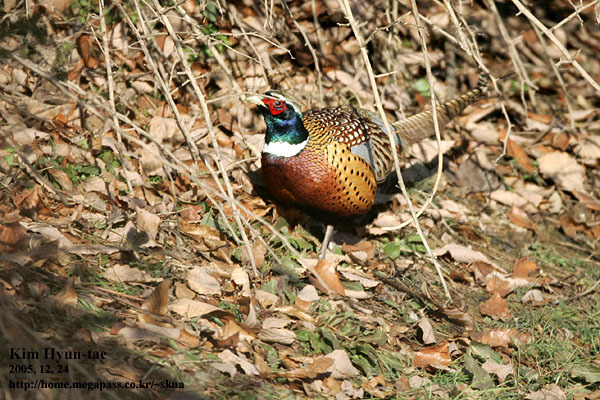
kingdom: Animalia
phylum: Chordata
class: Aves
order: Galliformes
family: Phasianidae
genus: Phasianus
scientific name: Phasianus colchicus
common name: Common pheasant
